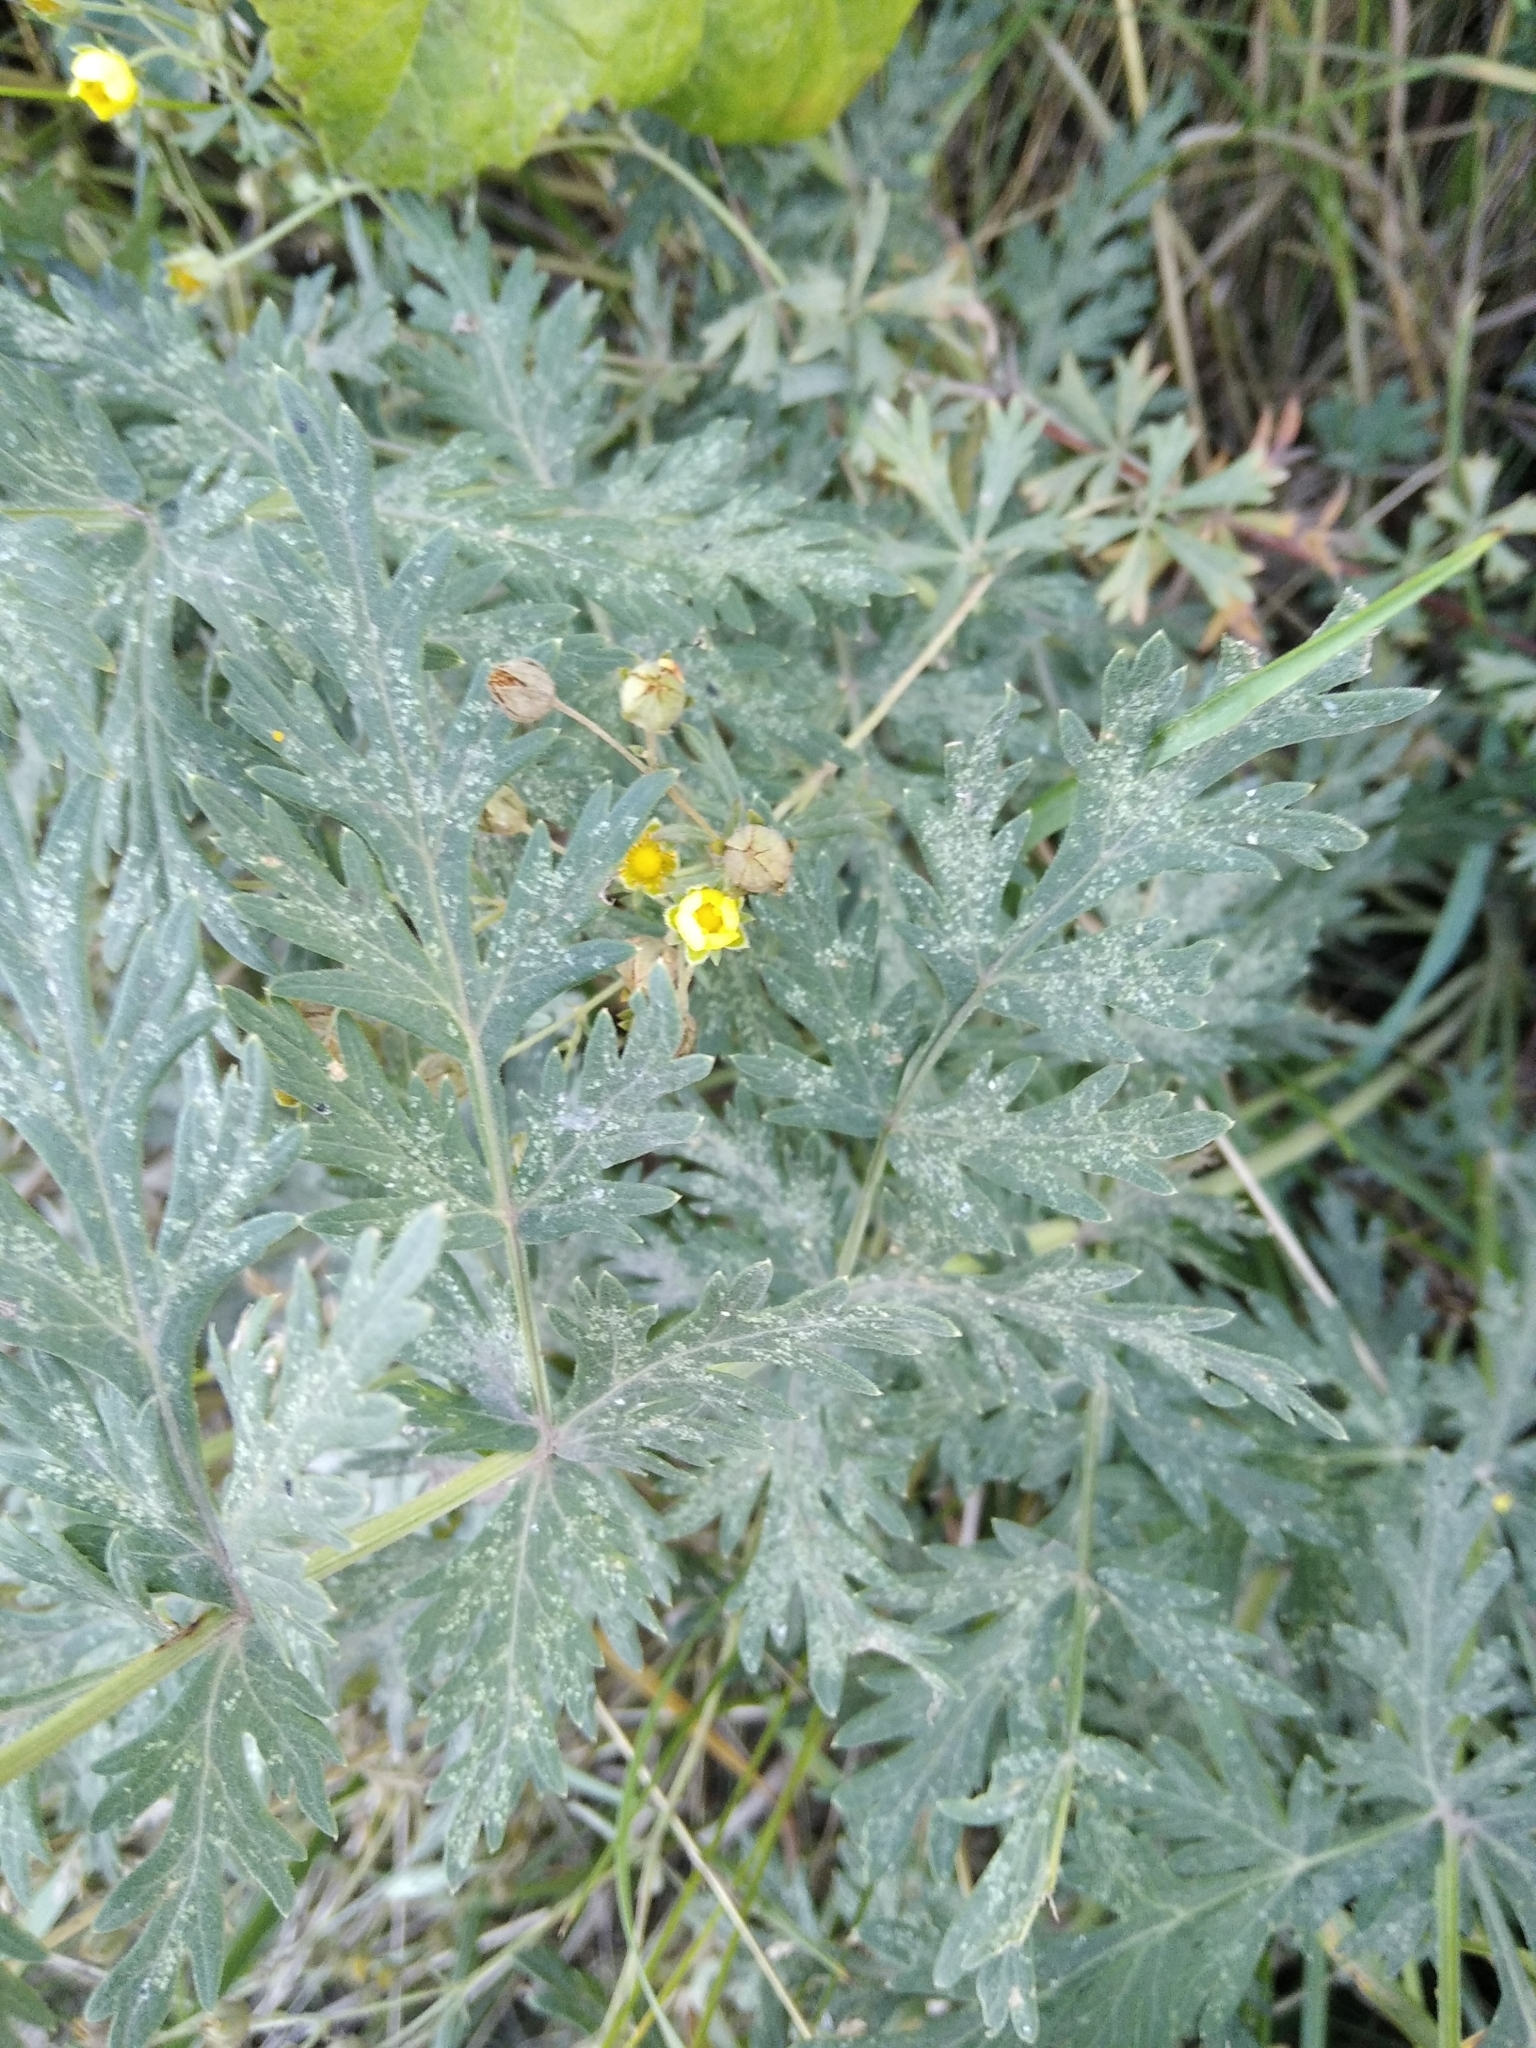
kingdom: Plantae
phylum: Tracheophyta
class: Magnoliopsida
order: Rosales
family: Rosaceae
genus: Potentilla
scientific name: Potentilla argentea
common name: Hoary cinquefoil
